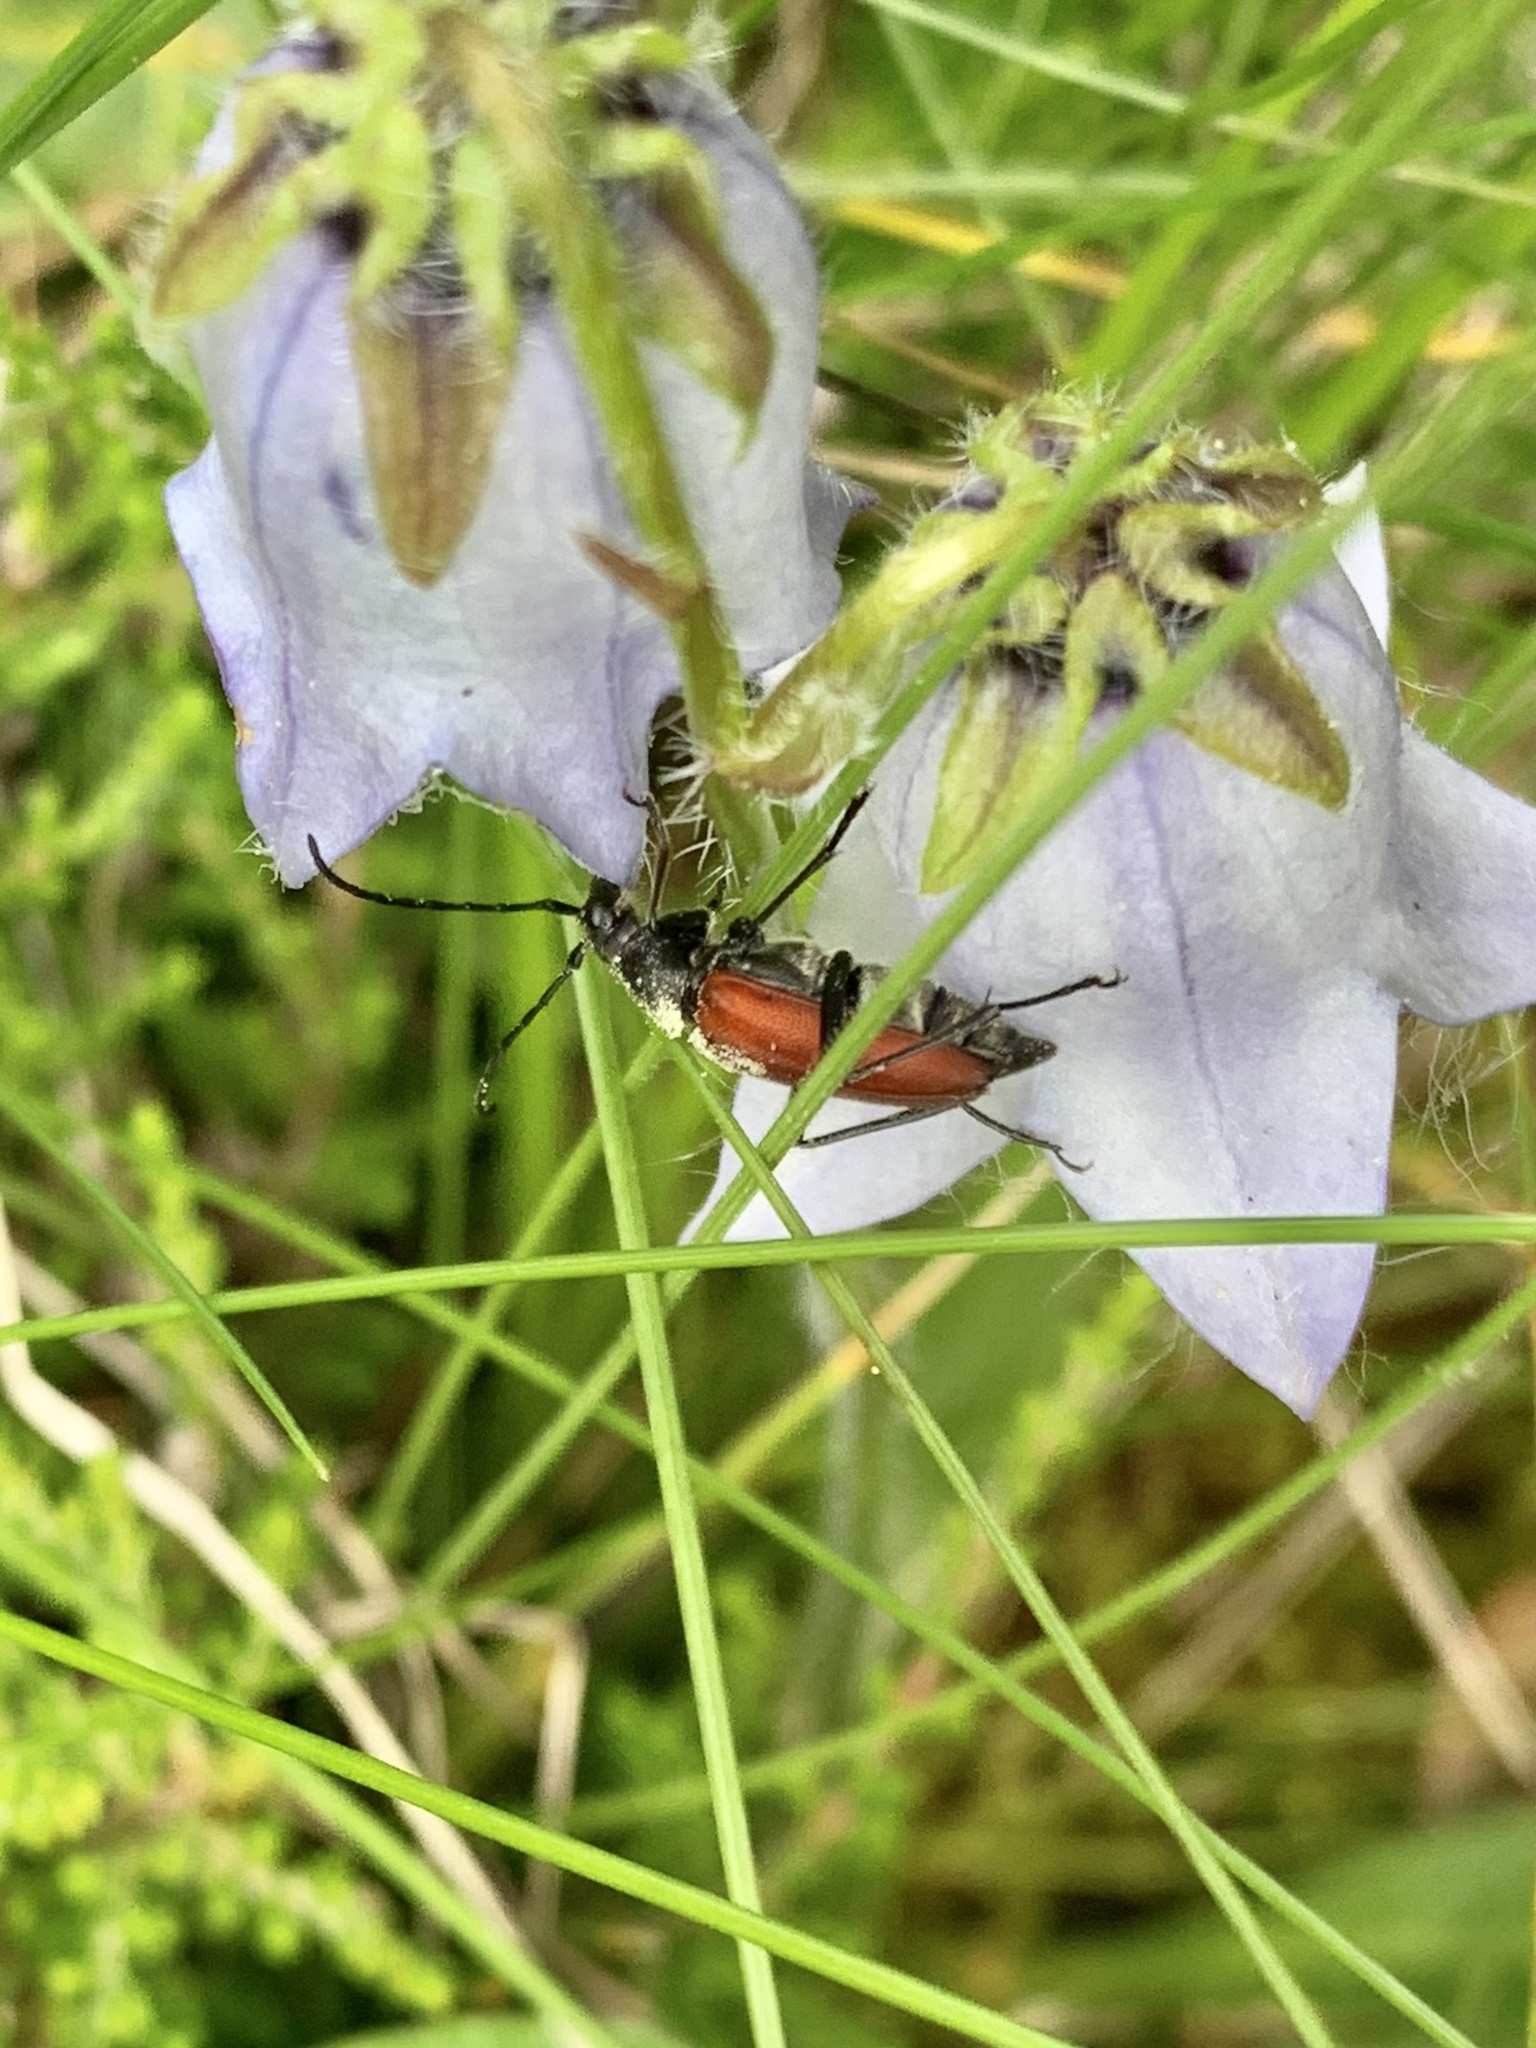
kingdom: Animalia
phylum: Arthropoda
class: Insecta
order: Coleoptera
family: Cerambycidae
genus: Anastrangalia
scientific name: Anastrangalia sanguinolenta
